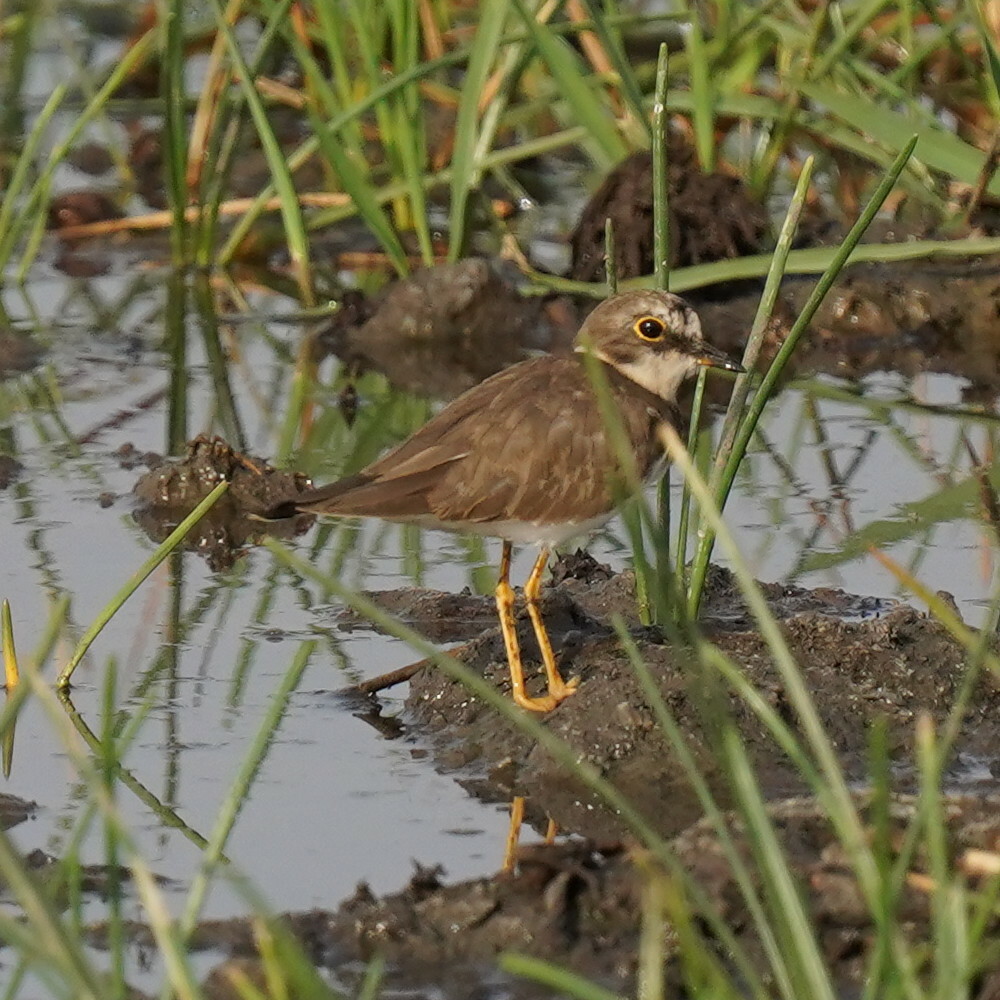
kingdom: Animalia
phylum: Chordata
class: Aves
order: Charadriiformes
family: Charadriidae
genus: Charadrius
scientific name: Charadrius dubius
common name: Little ringed plover
